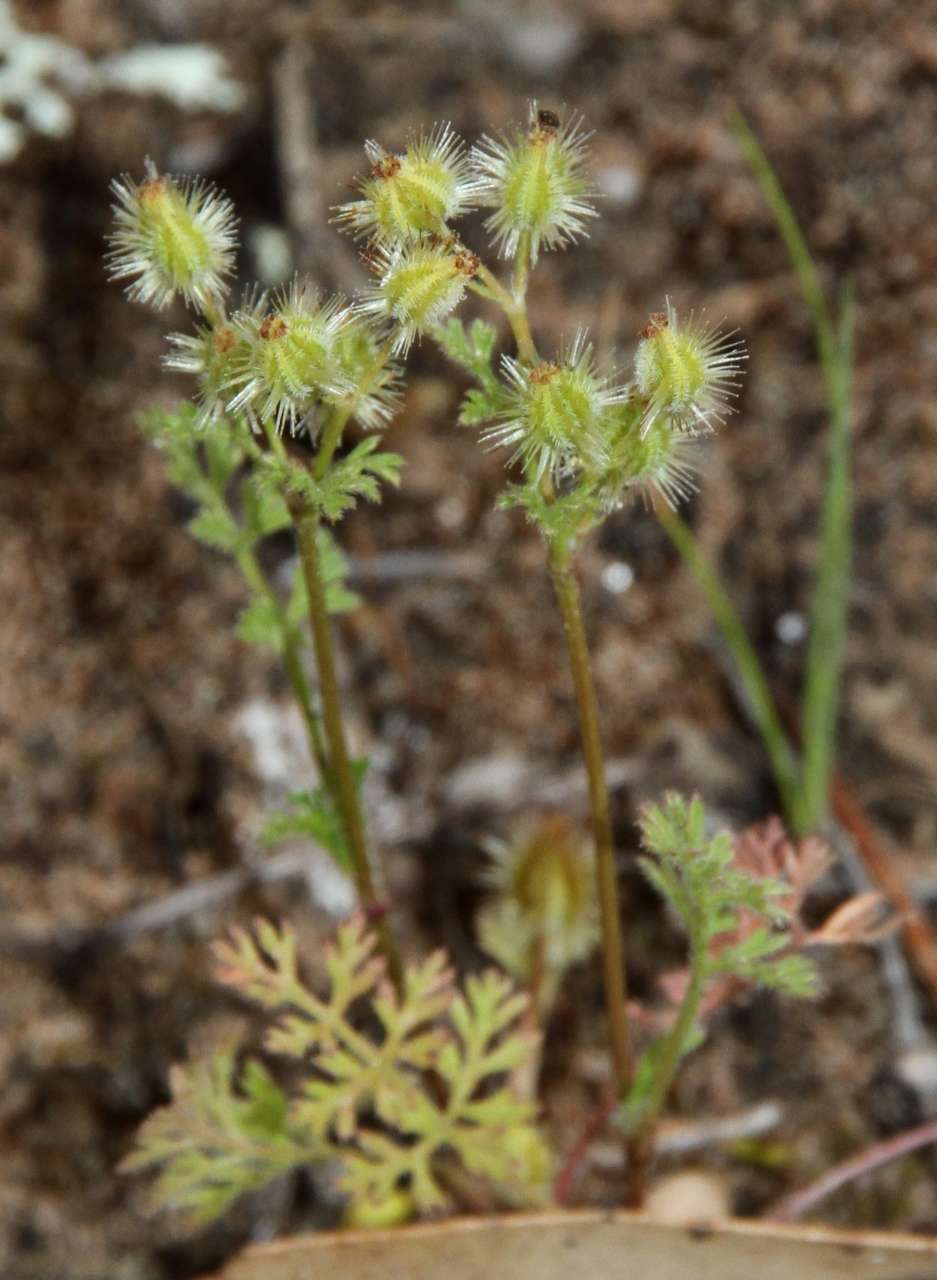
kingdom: Plantae
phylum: Tracheophyta
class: Magnoliopsida
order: Apiales
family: Apiaceae
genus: Daucus
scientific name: Daucus glochidiatus
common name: Australian carrot
